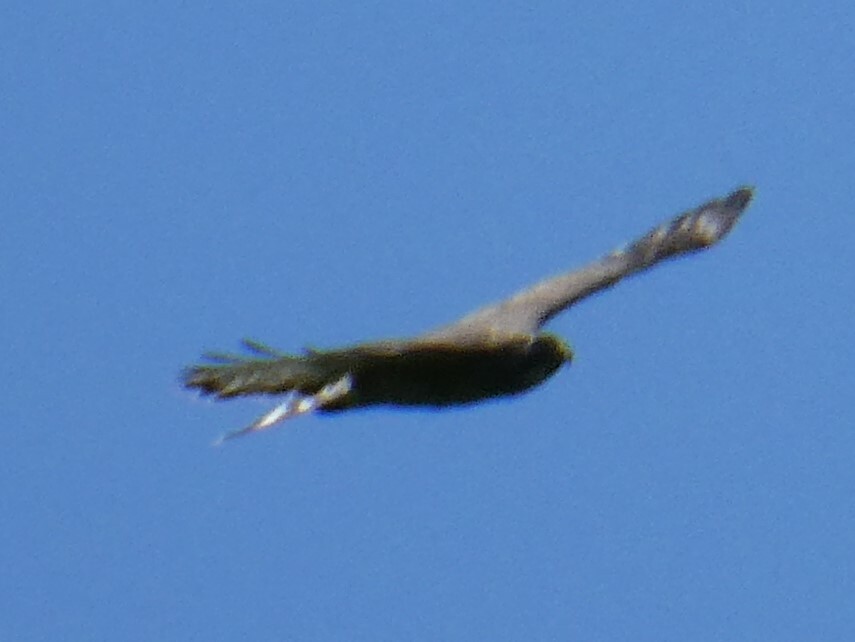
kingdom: Animalia
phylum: Chordata
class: Aves
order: Accipitriformes
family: Accipitridae
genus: Buteo
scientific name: Buteo platypterus
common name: Broad-winged hawk
